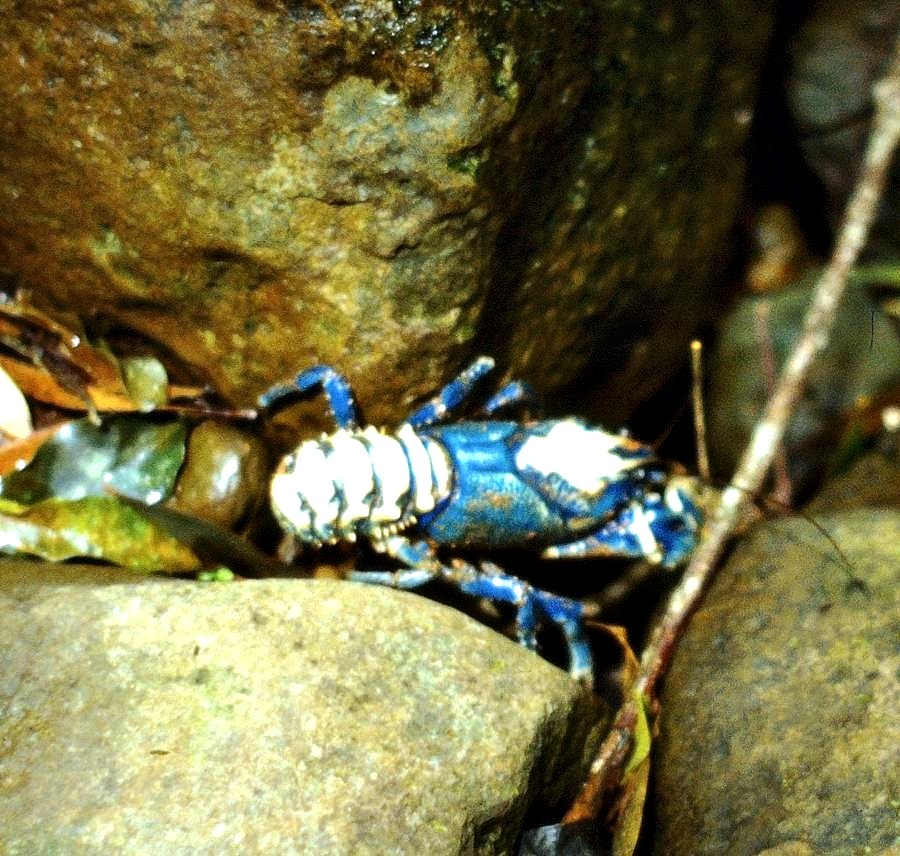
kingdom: Animalia
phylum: Arthropoda
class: Malacostraca
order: Decapoda
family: Parastacidae
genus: Euastacus
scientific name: Euastacus sulcatus
